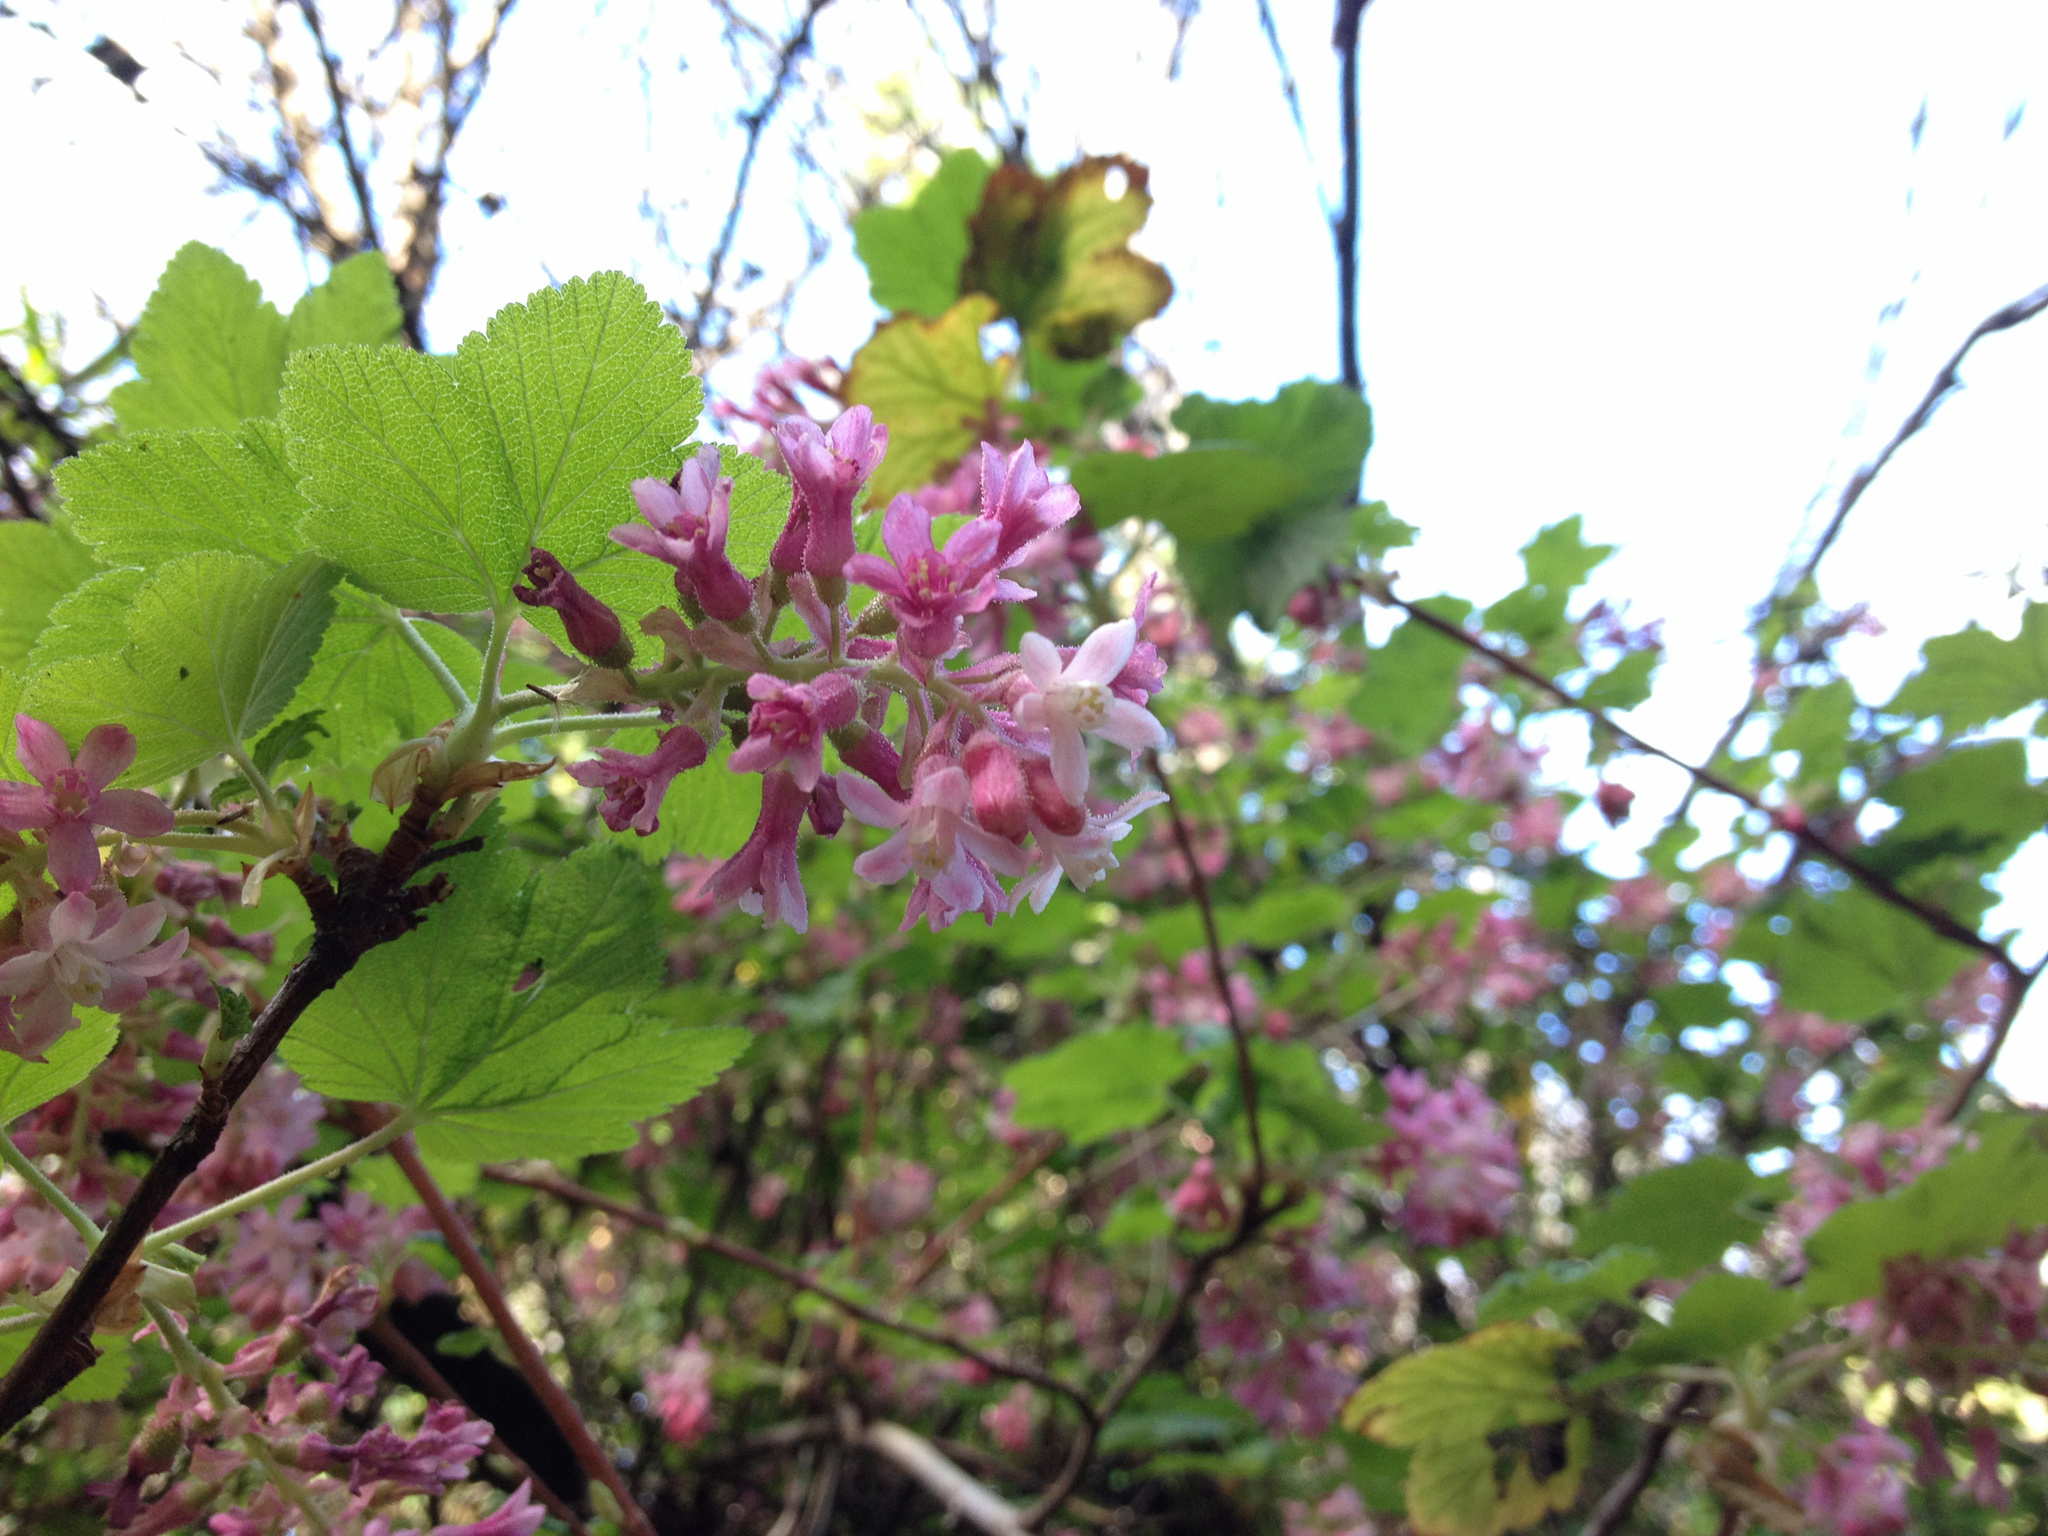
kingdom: Plantae
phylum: Tracheophyta
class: Magnoliopsida
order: Saxifragales
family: Grossulariaceae
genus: Ribes
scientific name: Ribes sanguineum
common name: Flowering currant
